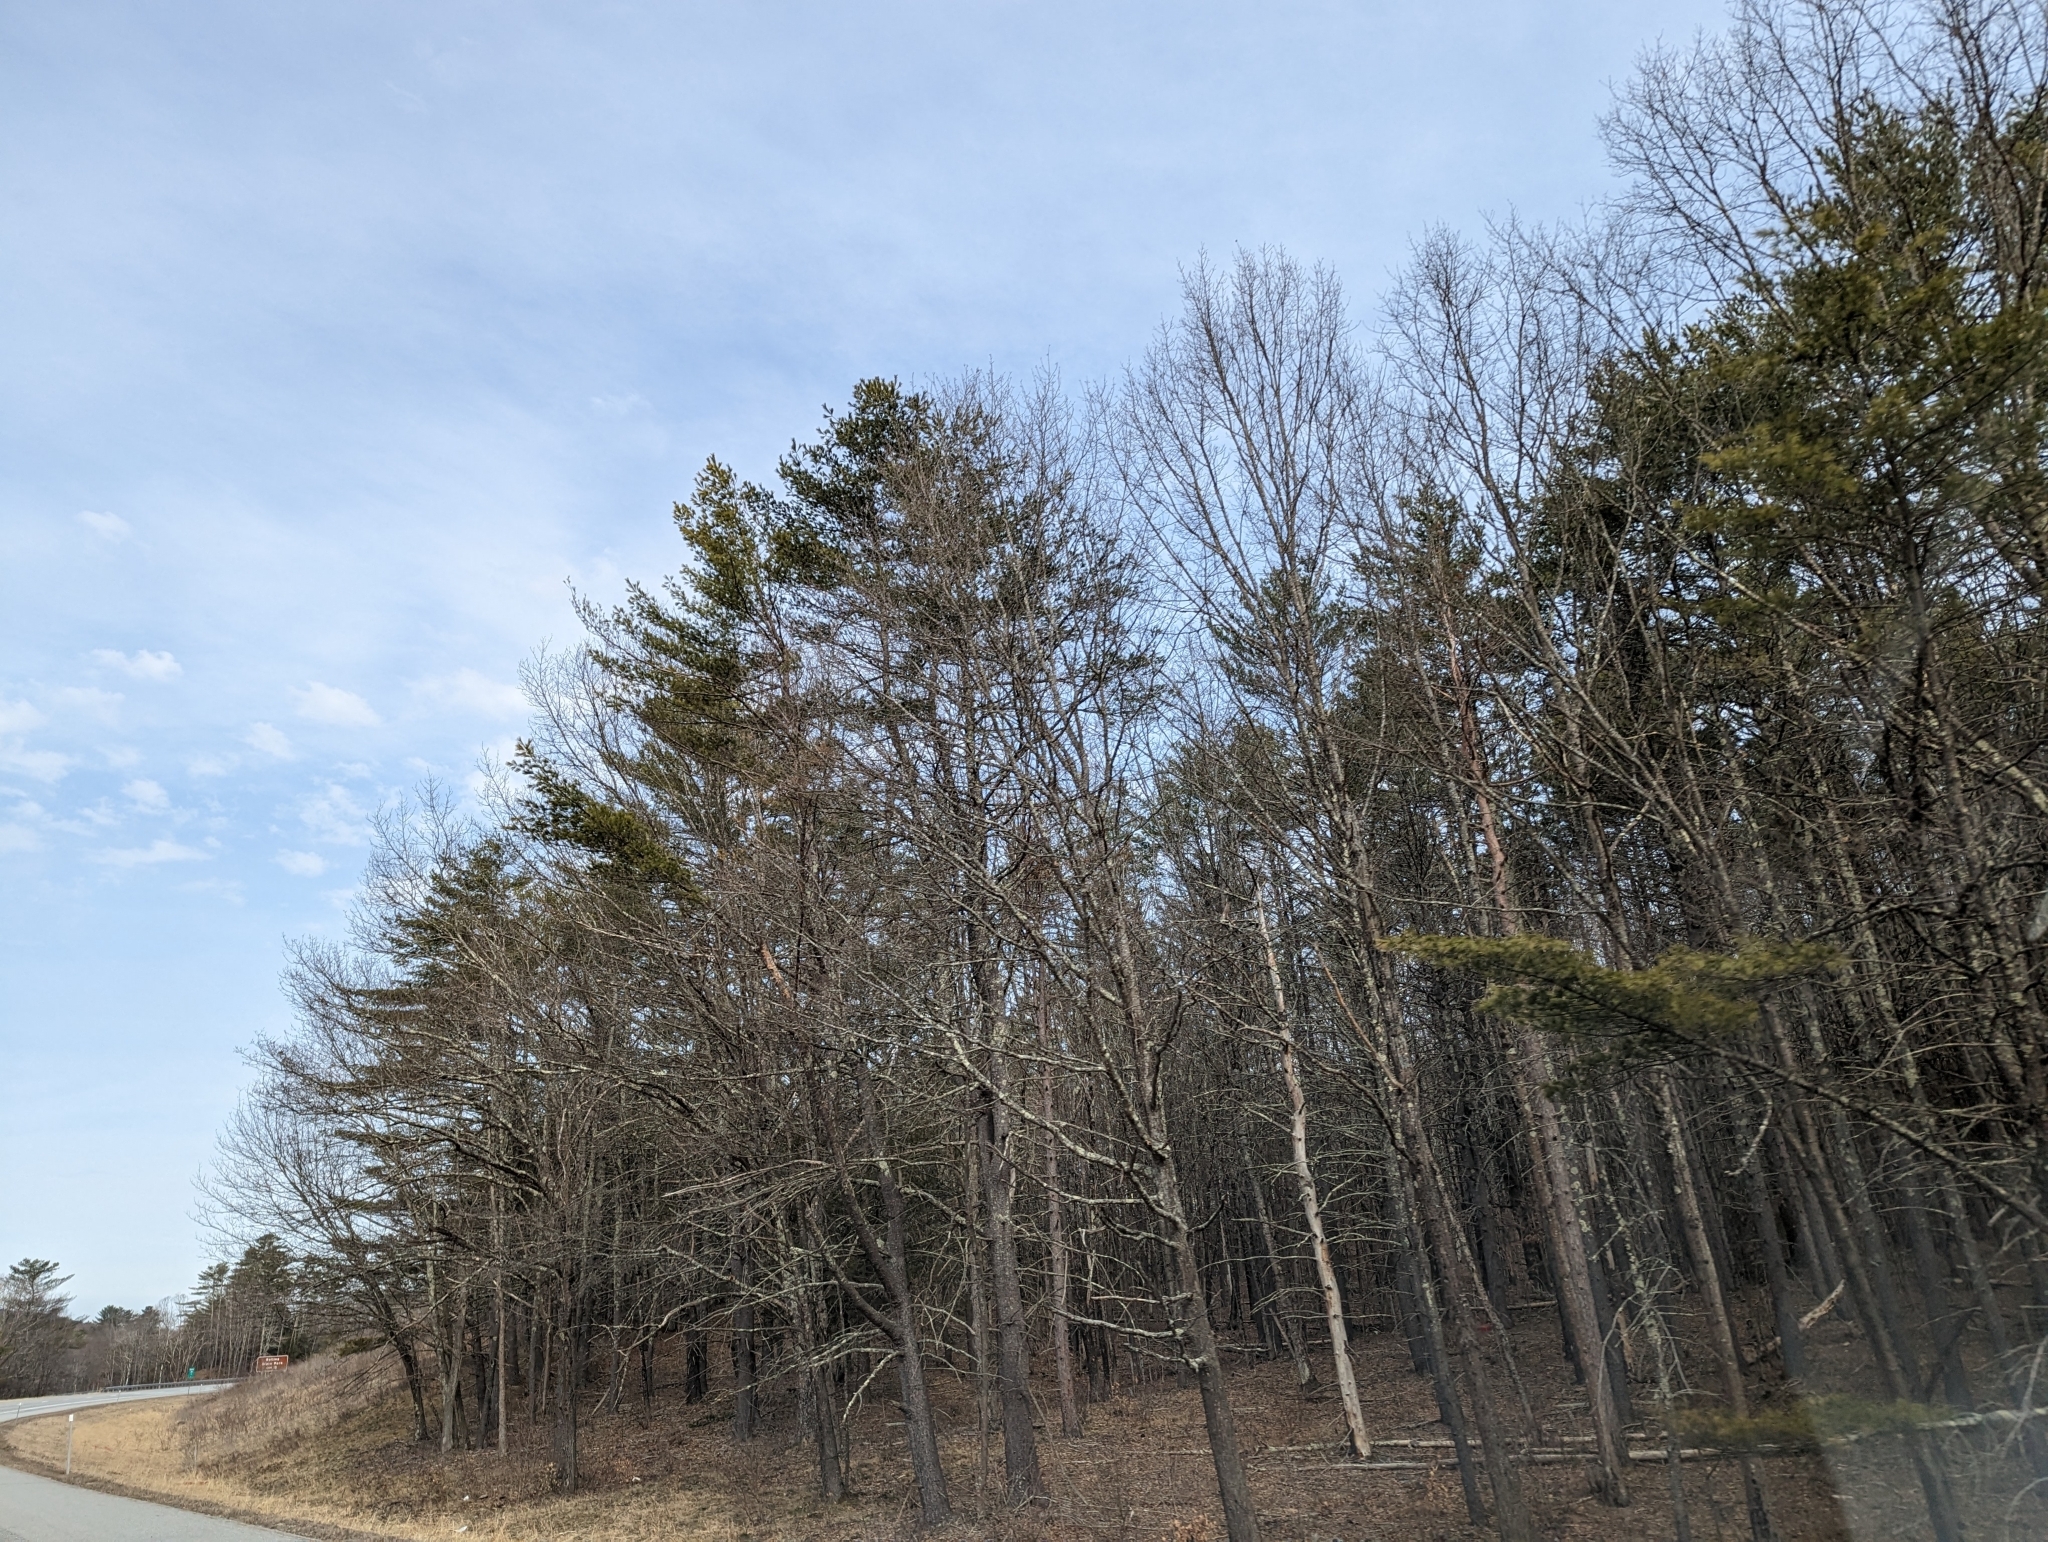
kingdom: Plantae
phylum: Tracheophyta
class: Pinopsida
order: Pinales
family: Pinaceae
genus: Pinus
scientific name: Pinus strobus
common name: Weymouth pine
